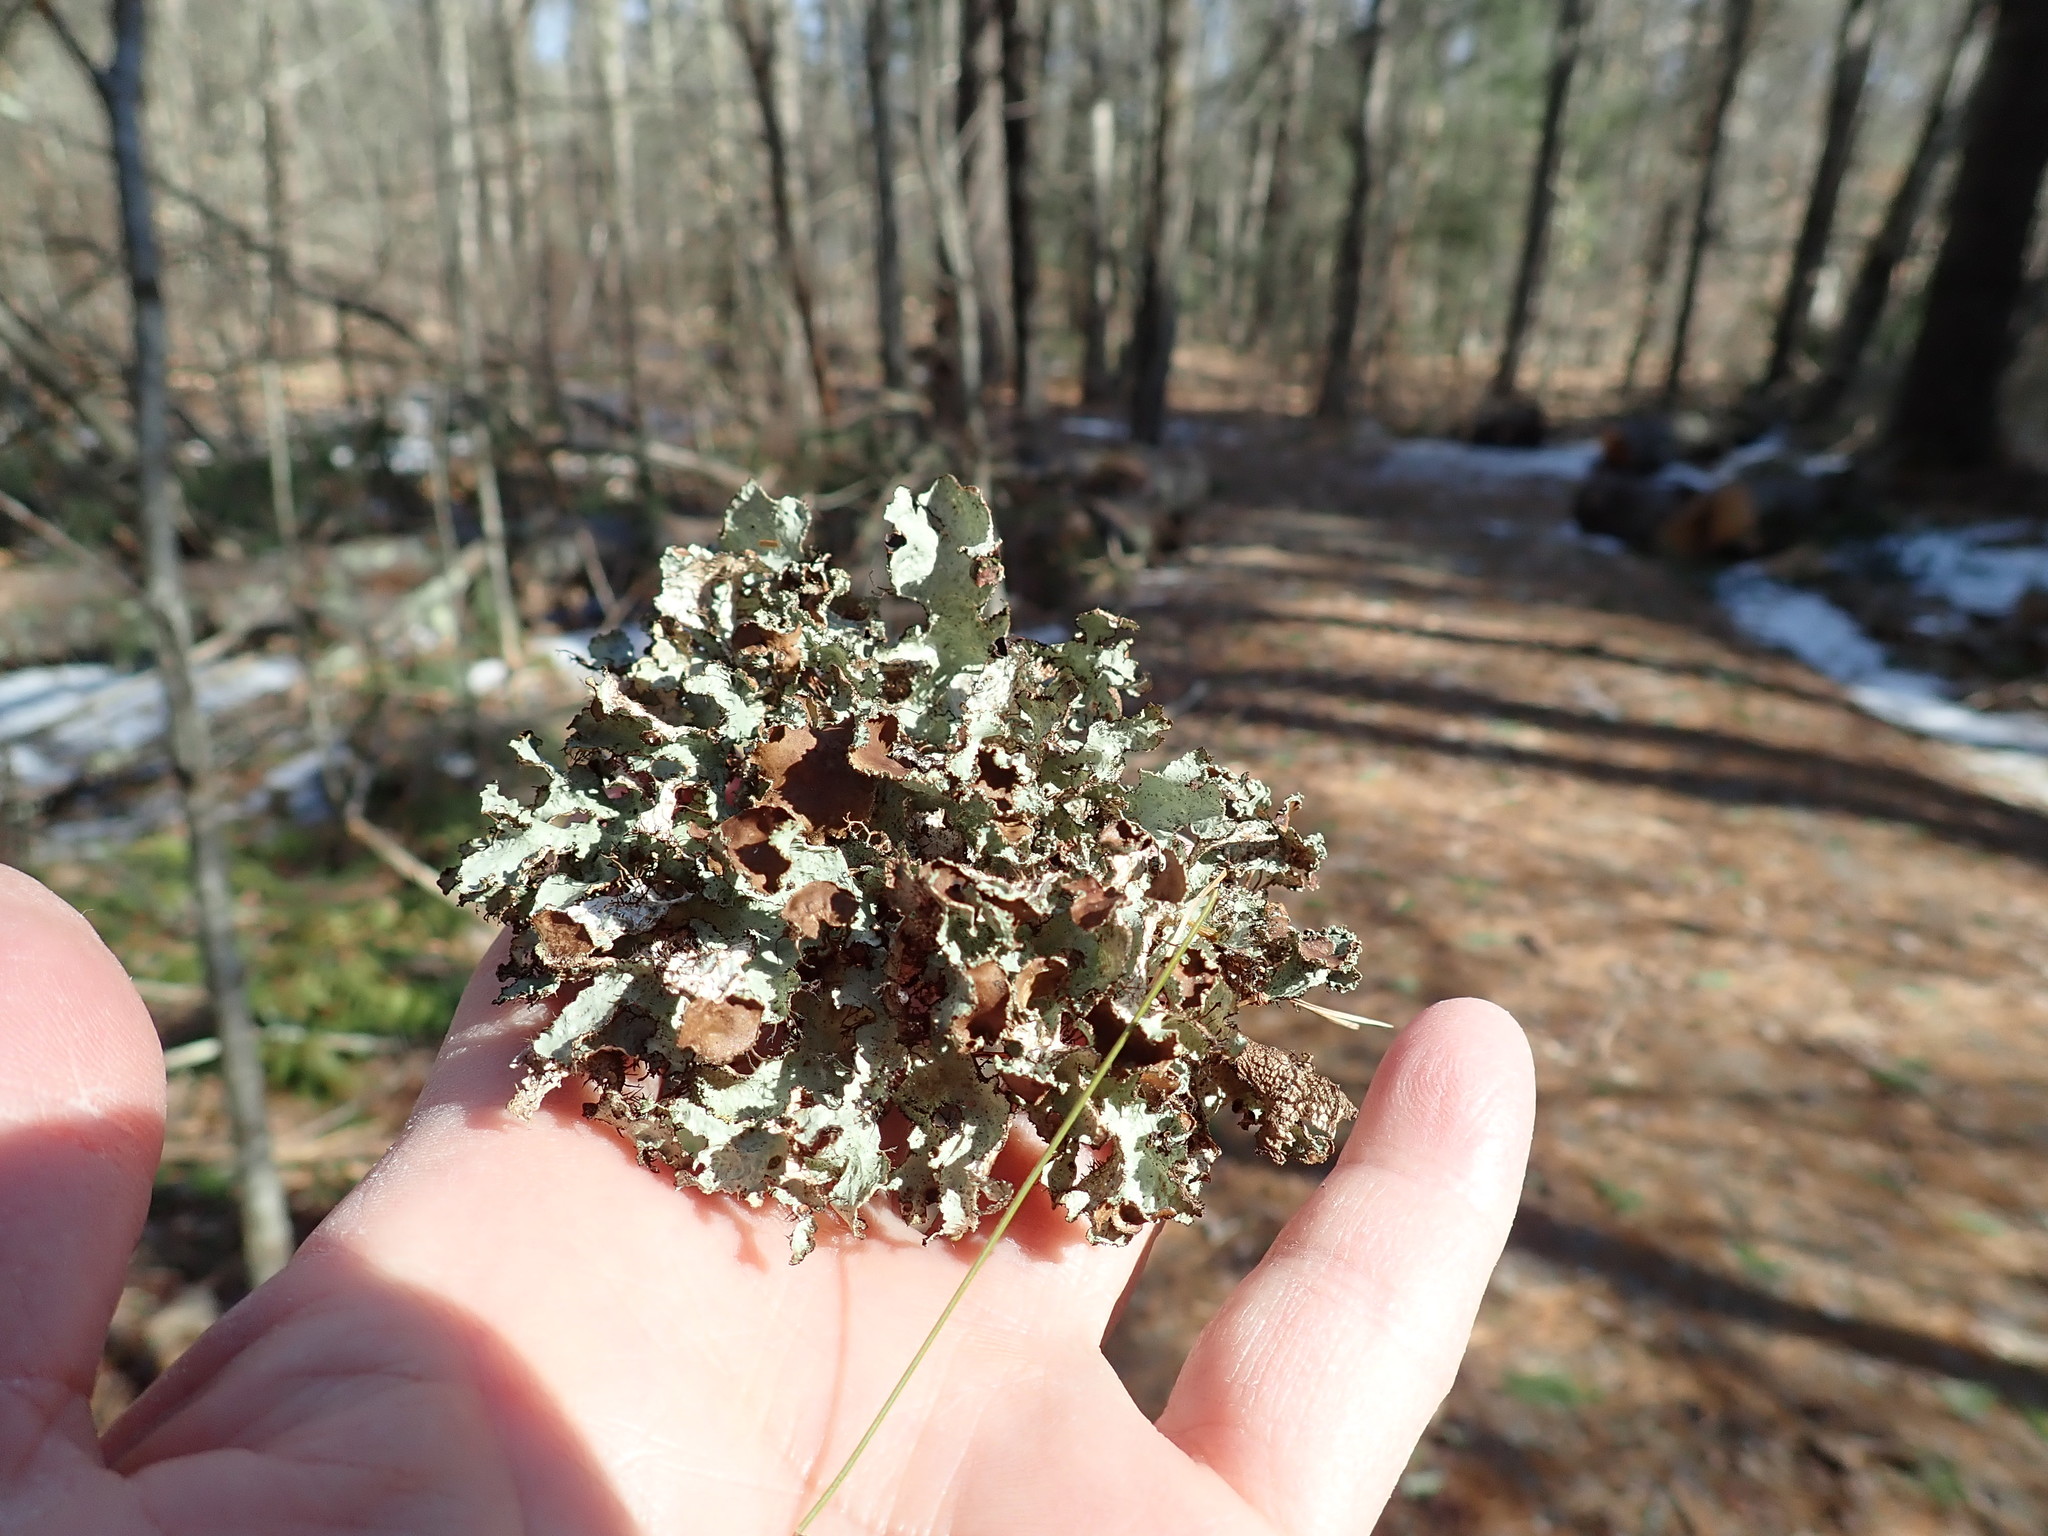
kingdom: Fungi
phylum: Ascomycota
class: Lecanoromycetes
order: Lecanorales
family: Parmeliaceae
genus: Platismatia
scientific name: Platismatia tuckermanii
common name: Crumpled rag lichen
